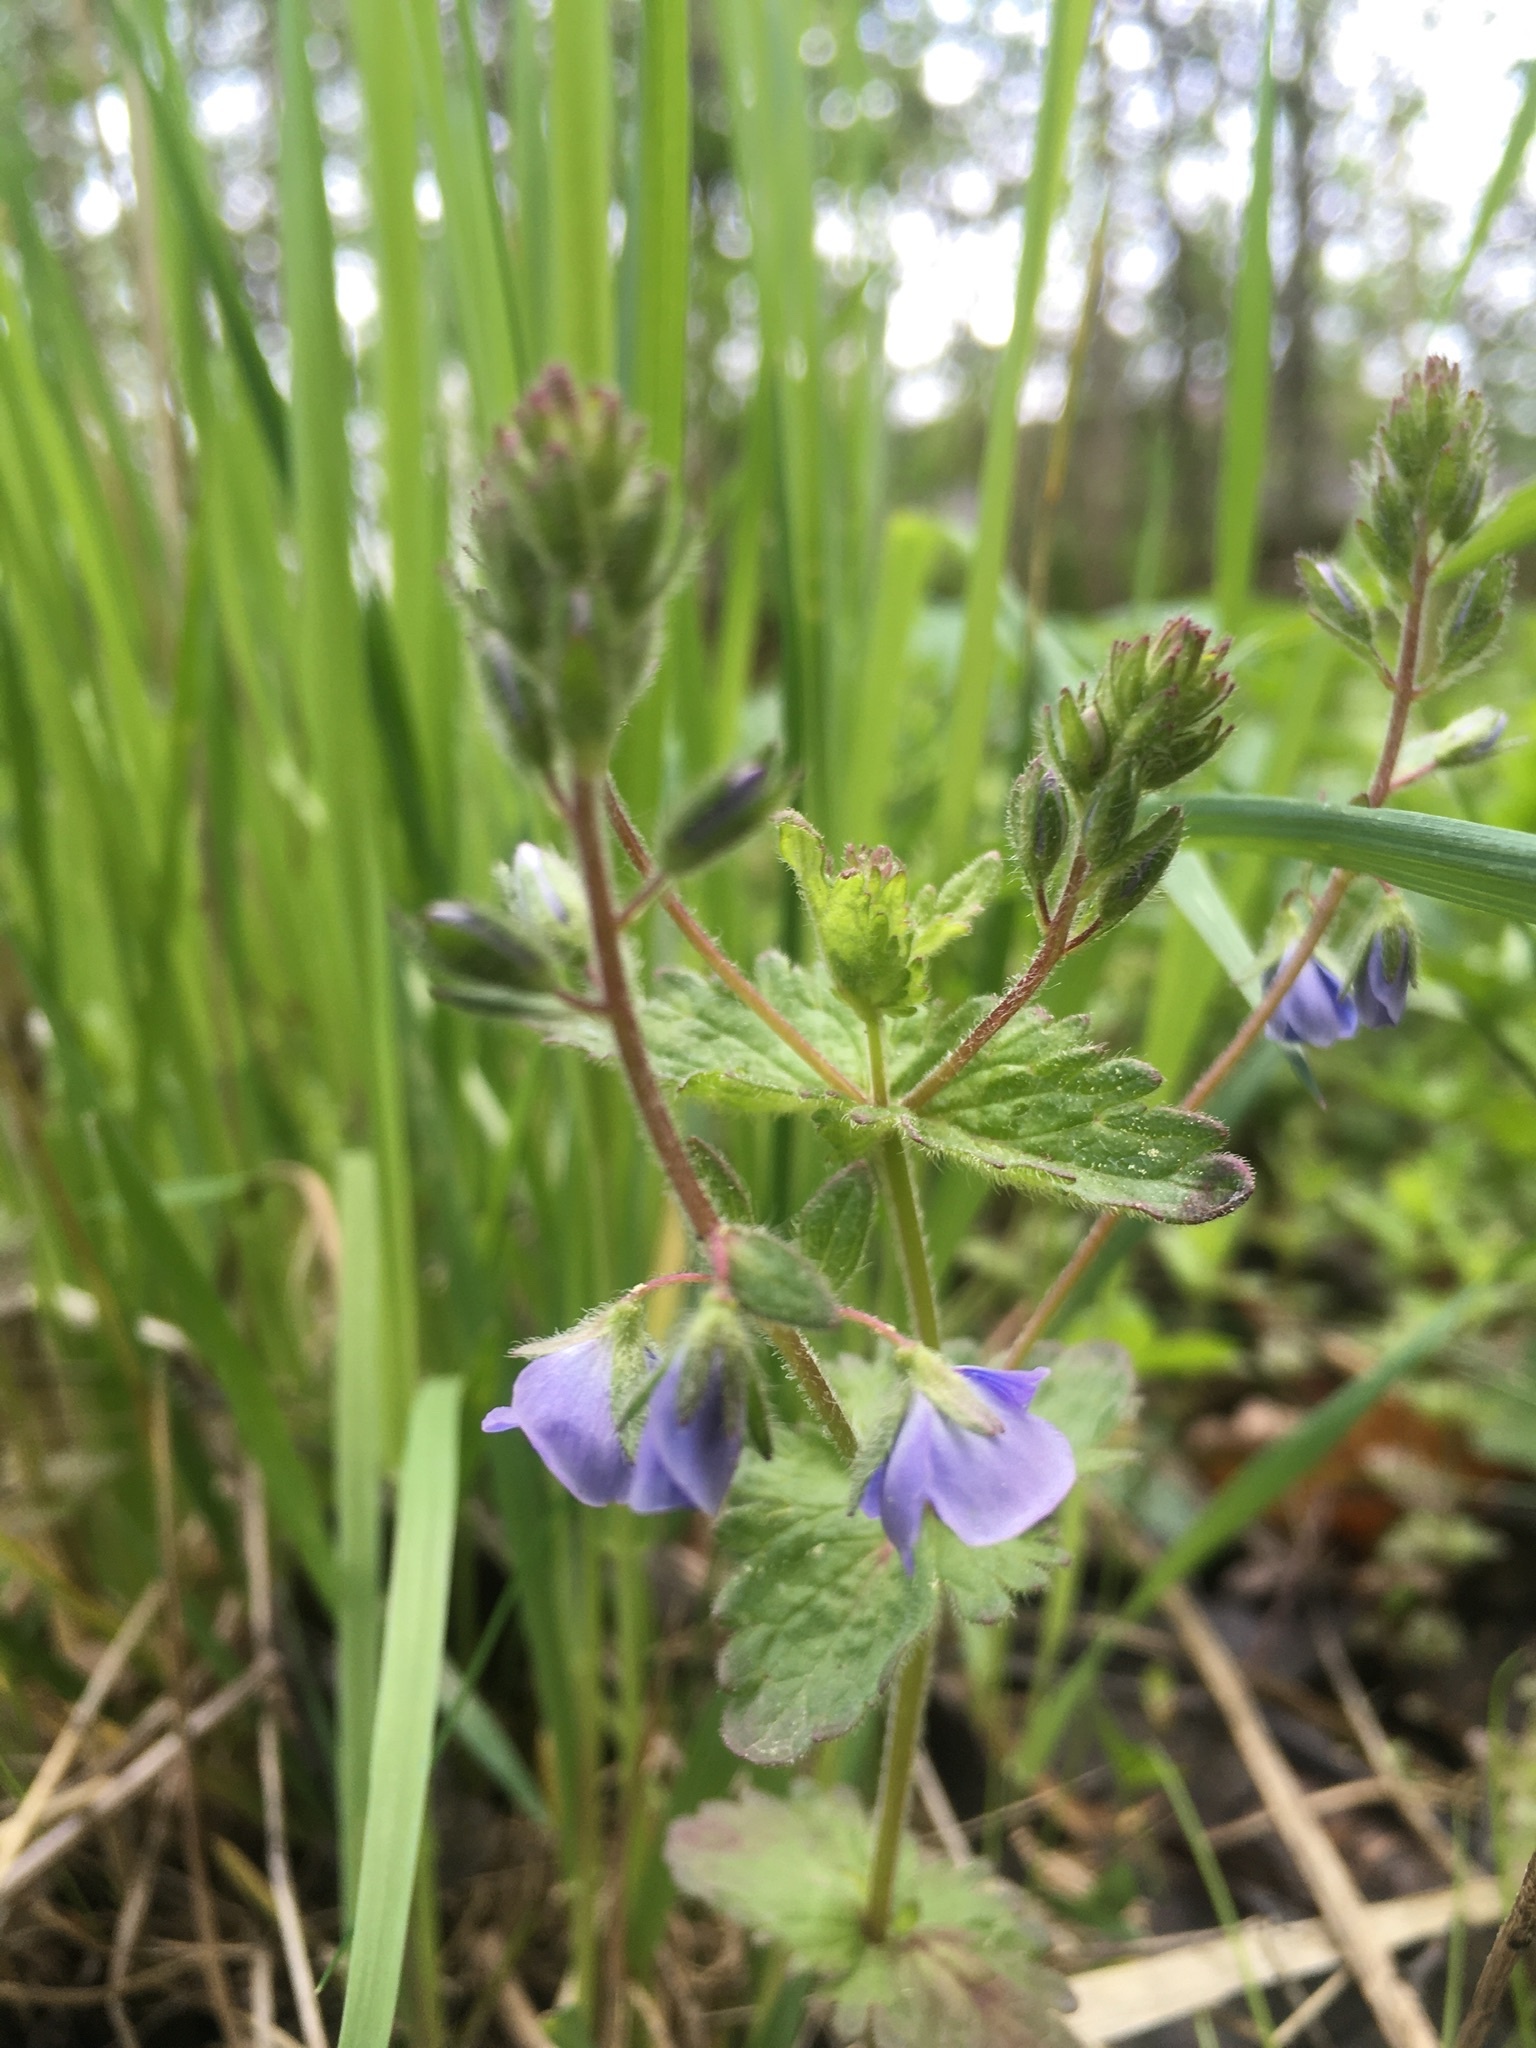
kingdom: Plantae
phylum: Tracheophyta
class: Magnoliopsida
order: Lamiales
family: Plantaginaceae
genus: Veronica
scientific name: Veronica chamaedrys
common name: Germander speedwell
